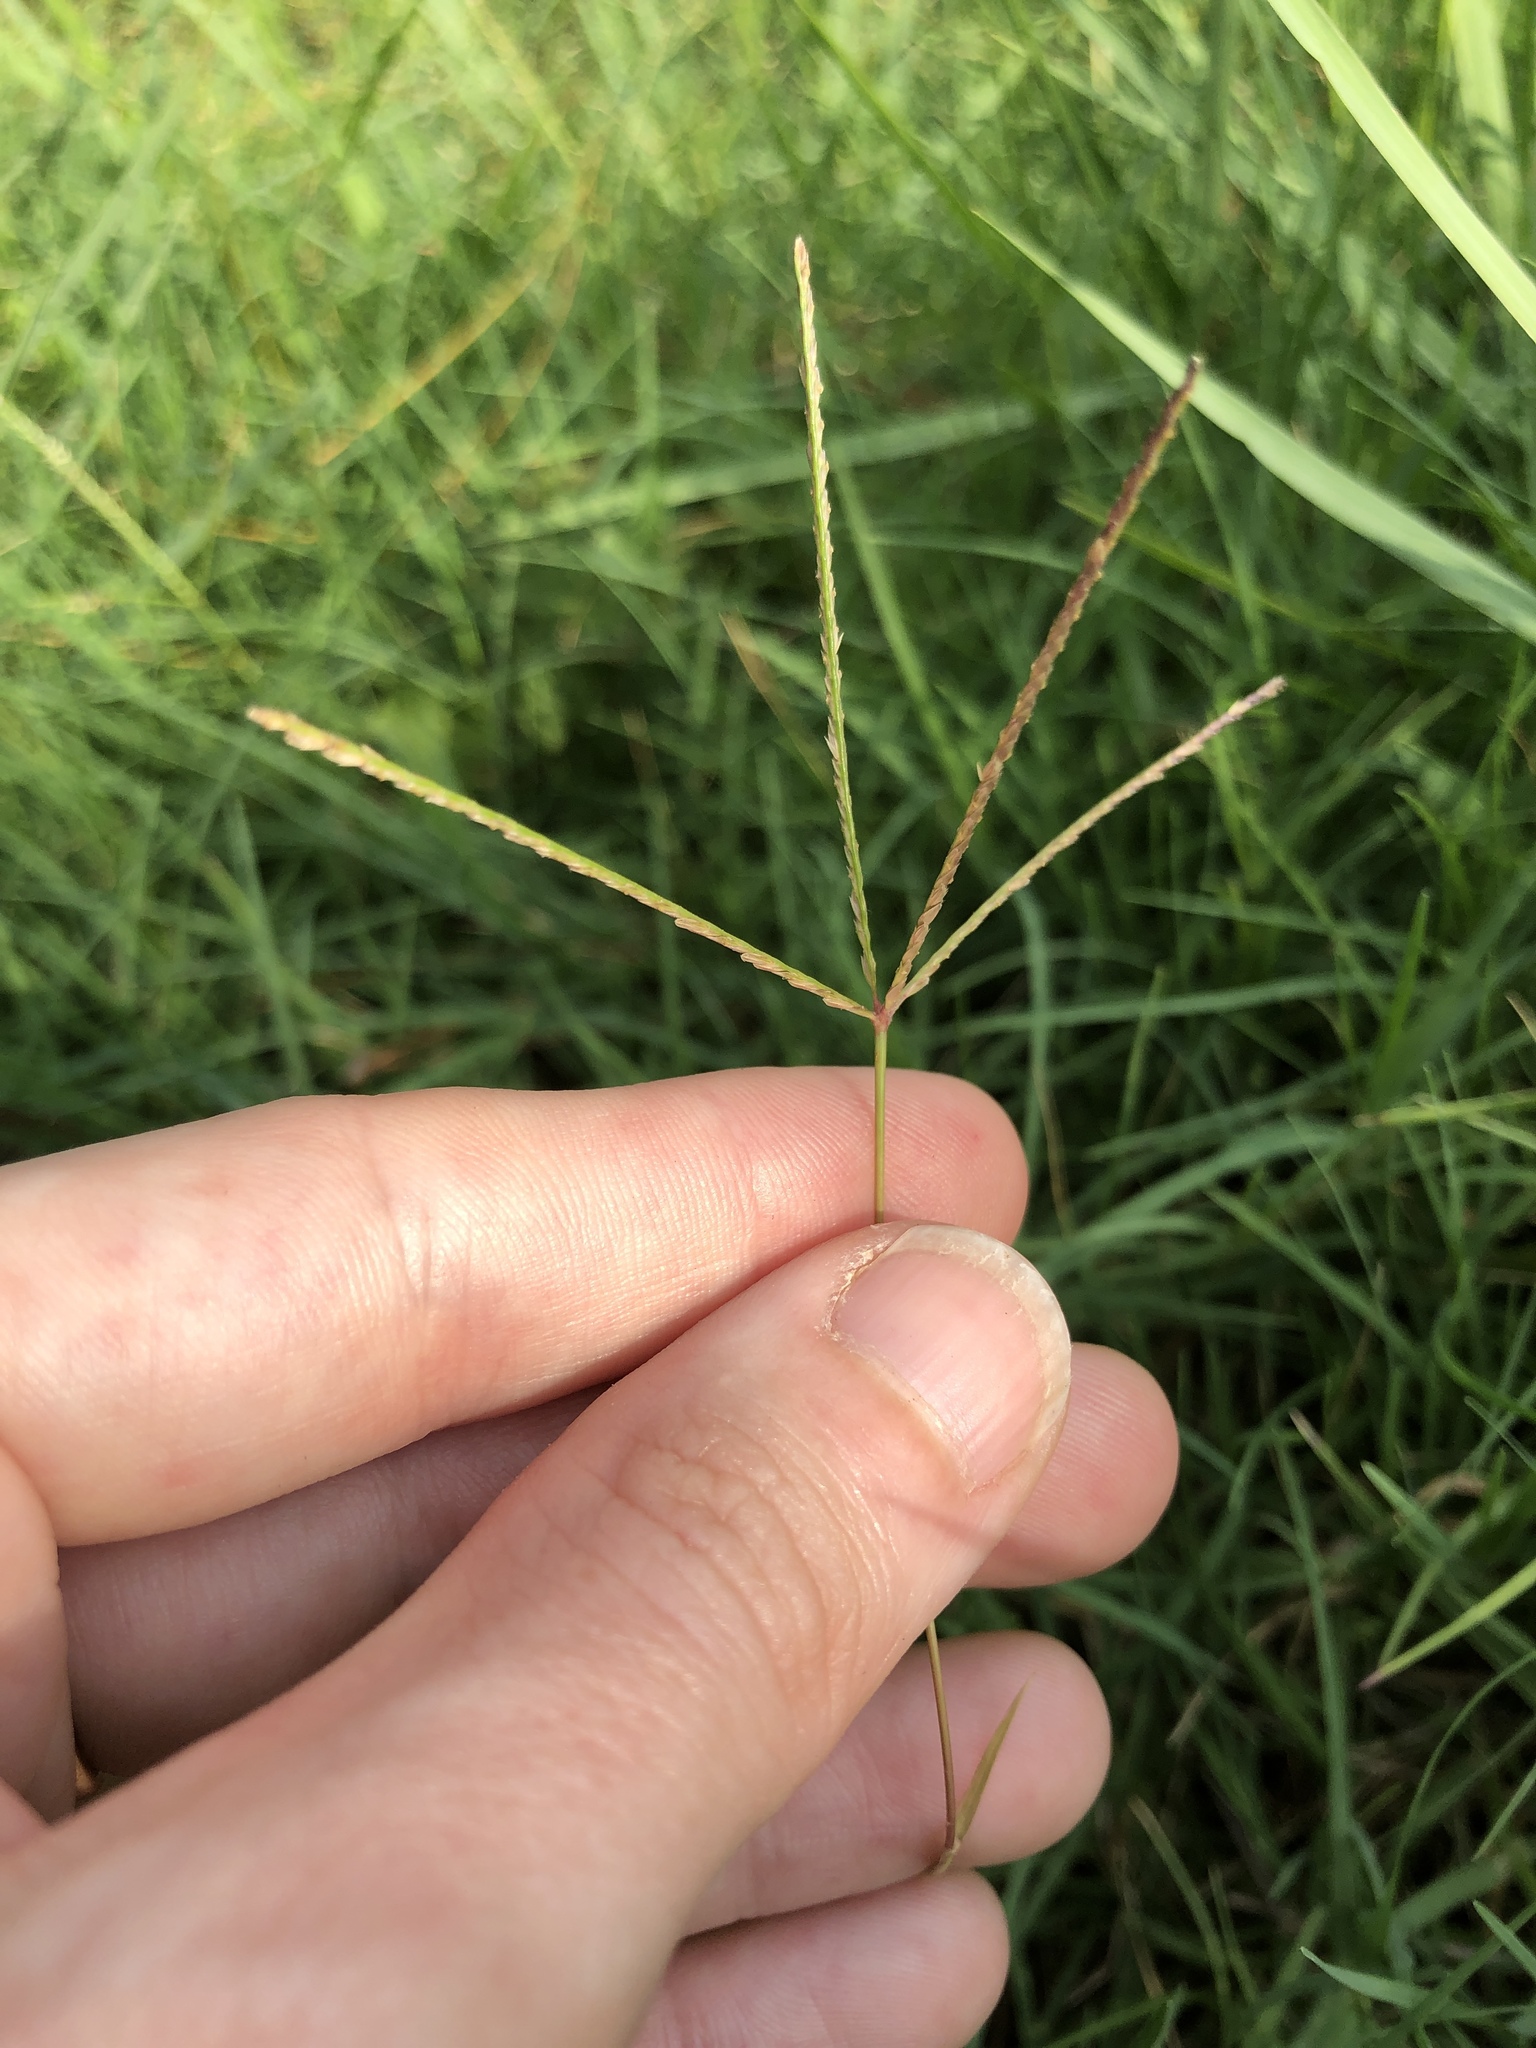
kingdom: Plantae
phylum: Tracheophyta
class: Liliopsida
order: Poales
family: Poaceae
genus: Cynodon
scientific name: Cynodon dactylon
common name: Bermuda grass
